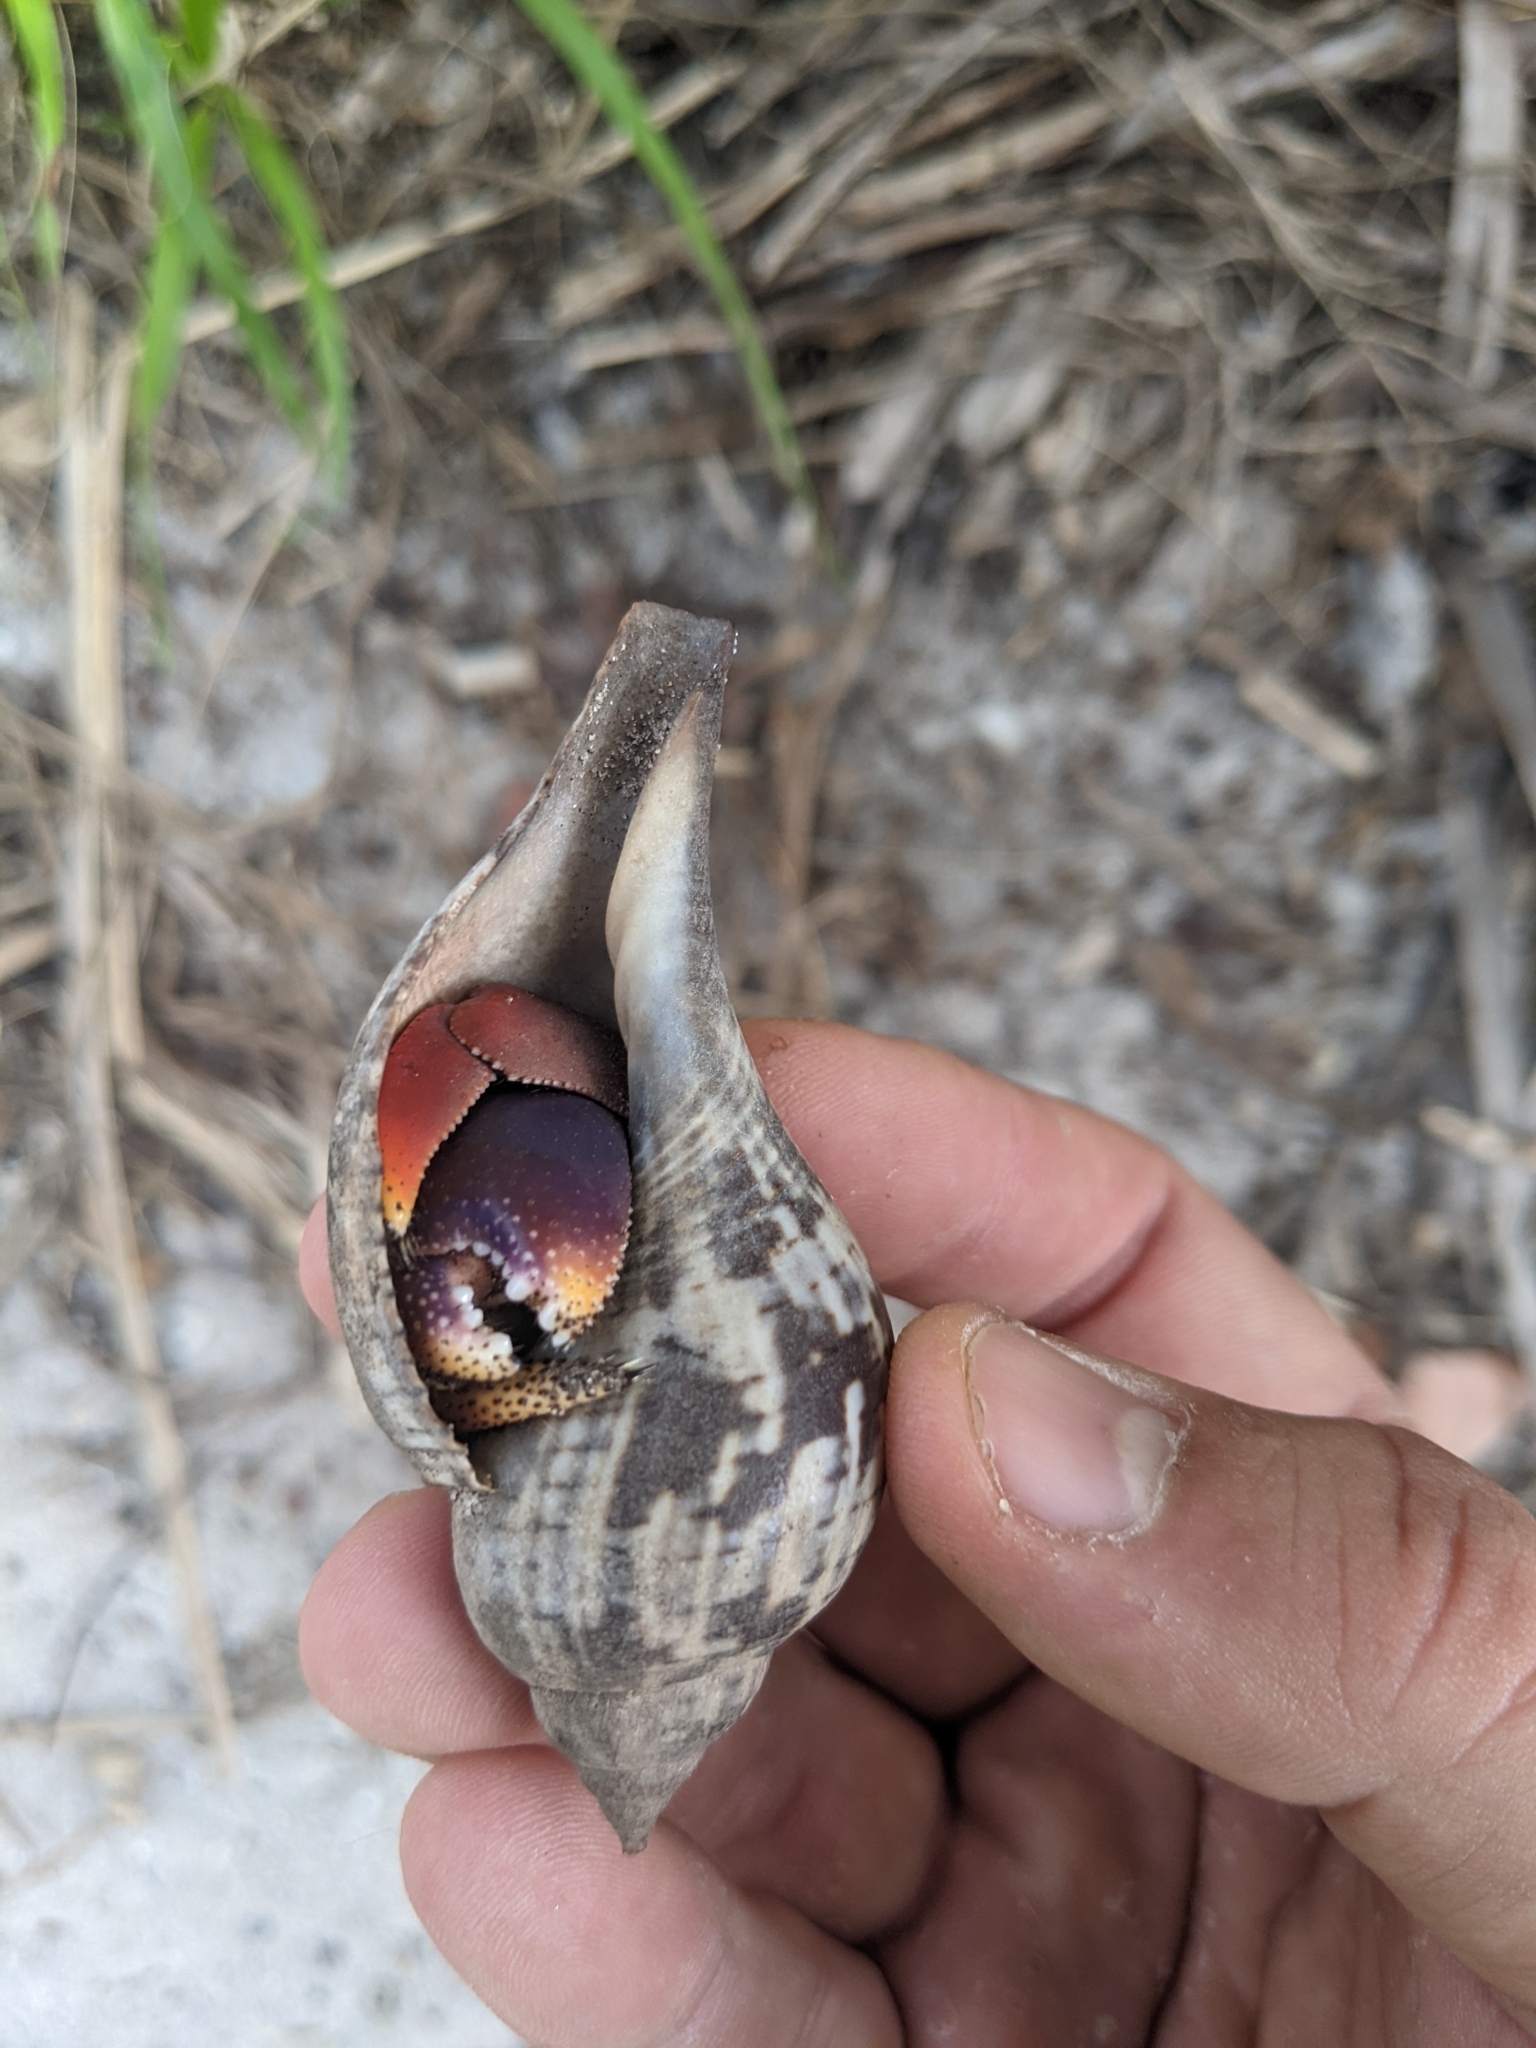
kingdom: Animalia
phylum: Arthropoda
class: Malacostraca
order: Decapoda
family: Coenobitidae
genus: Coenobita
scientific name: Coenobita clypeatus
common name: Caribbean hermit crab
